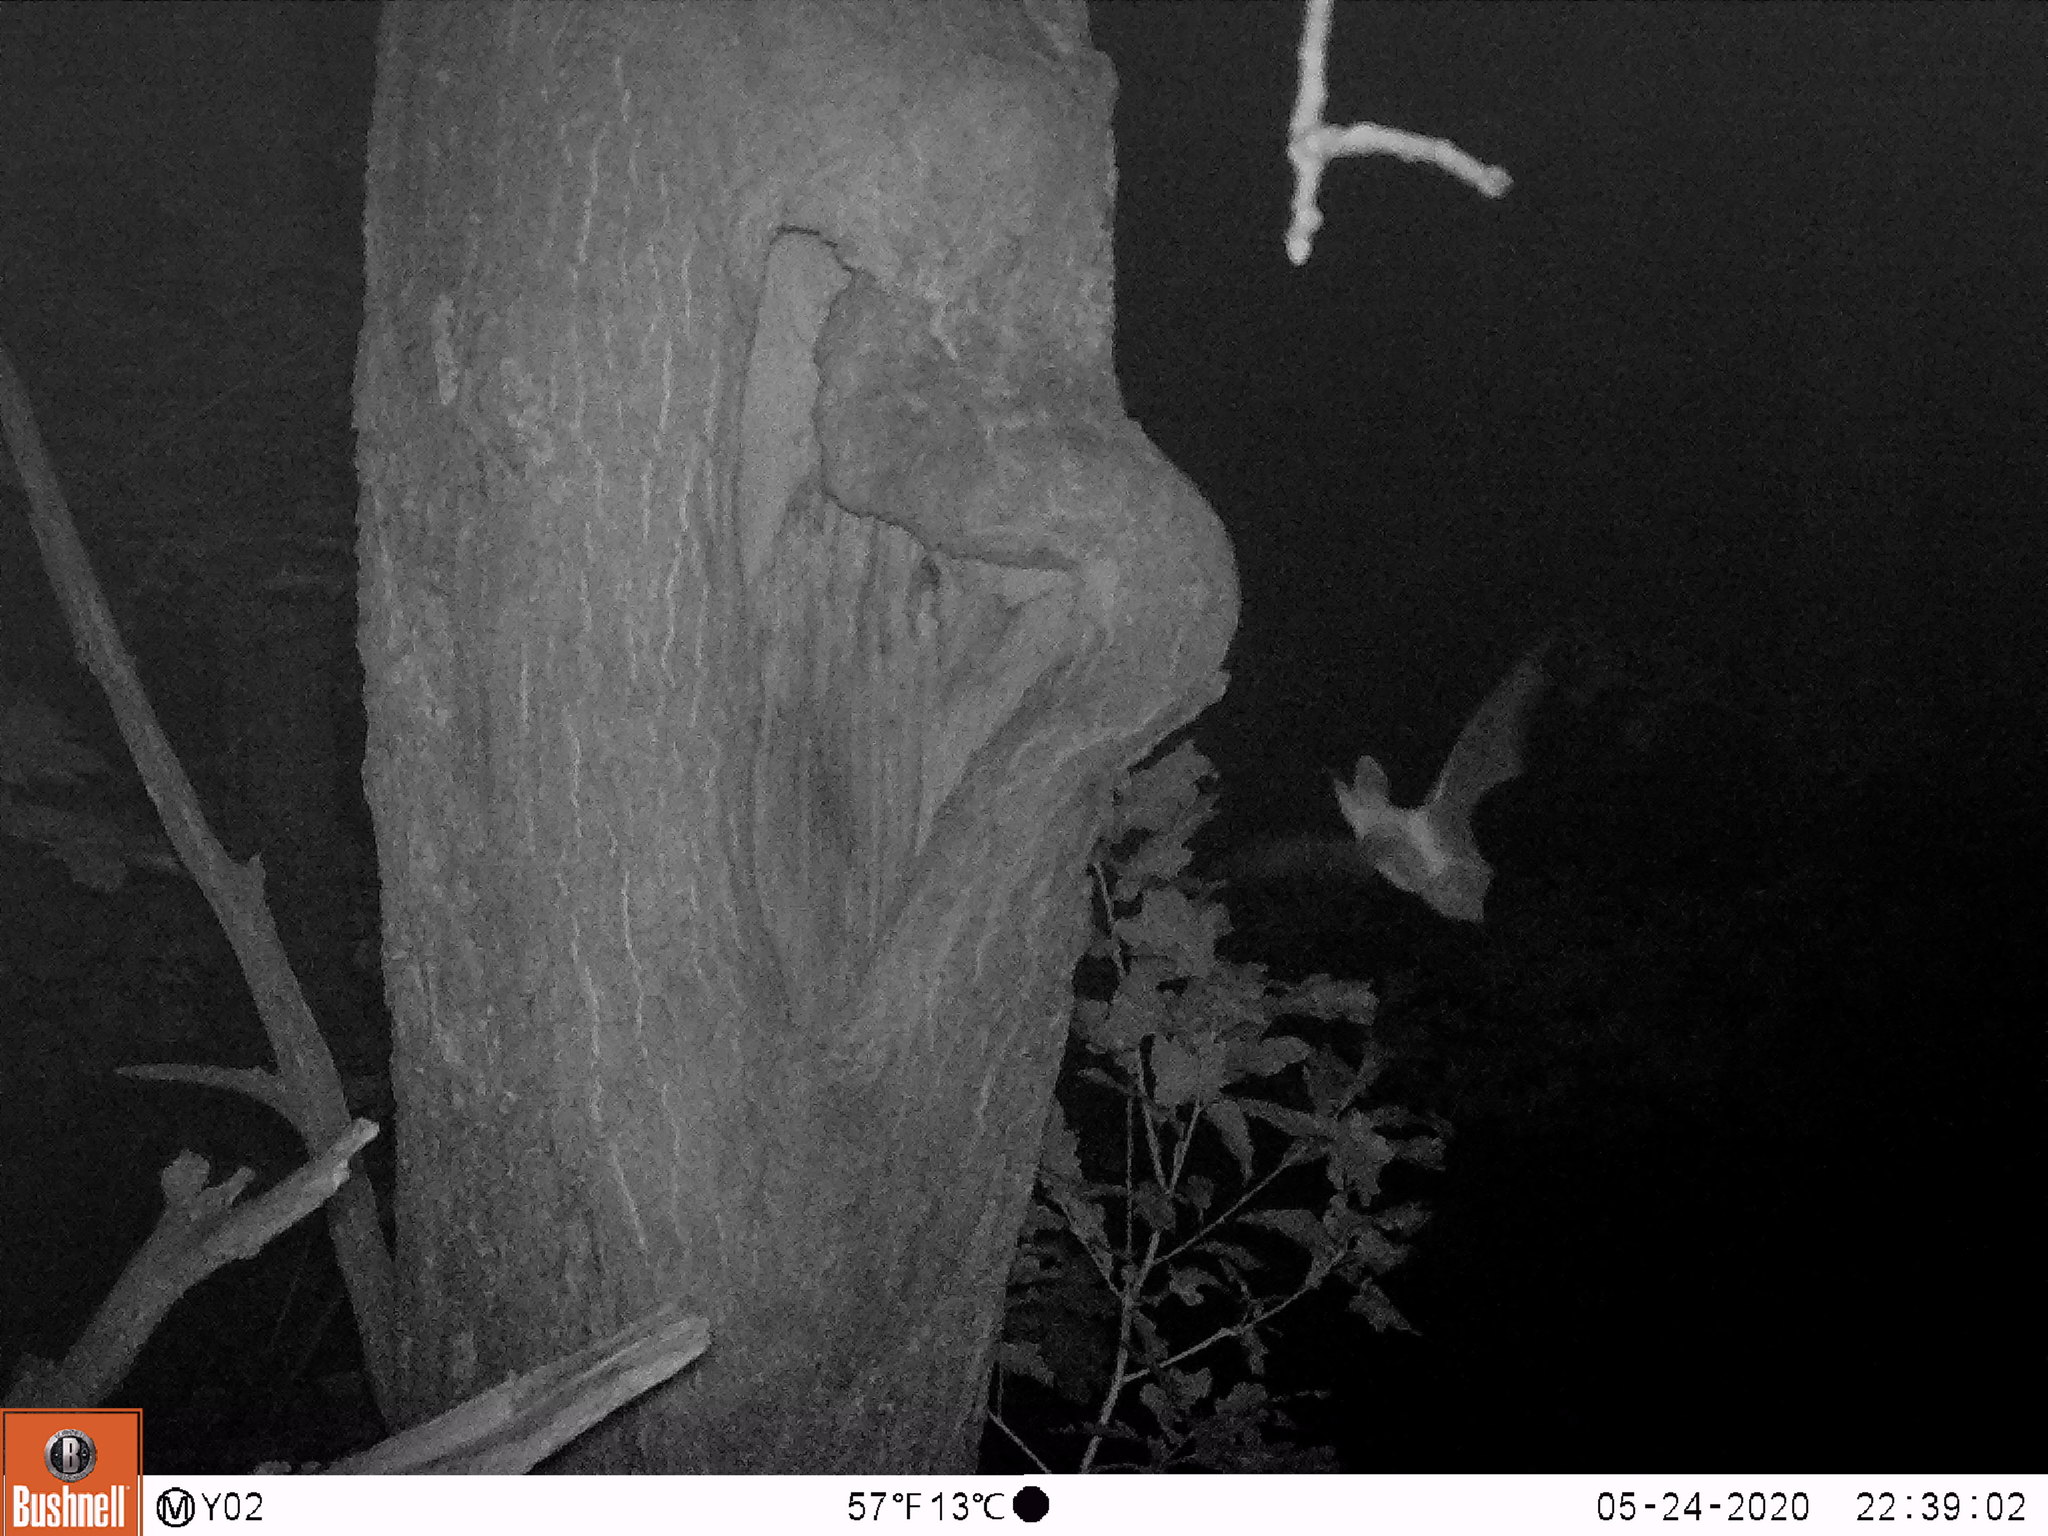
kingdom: Animalia
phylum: Chordata
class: Mammalia
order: Chiroptera
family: Vespertilionidae
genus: Plecotus
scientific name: Plecotus
